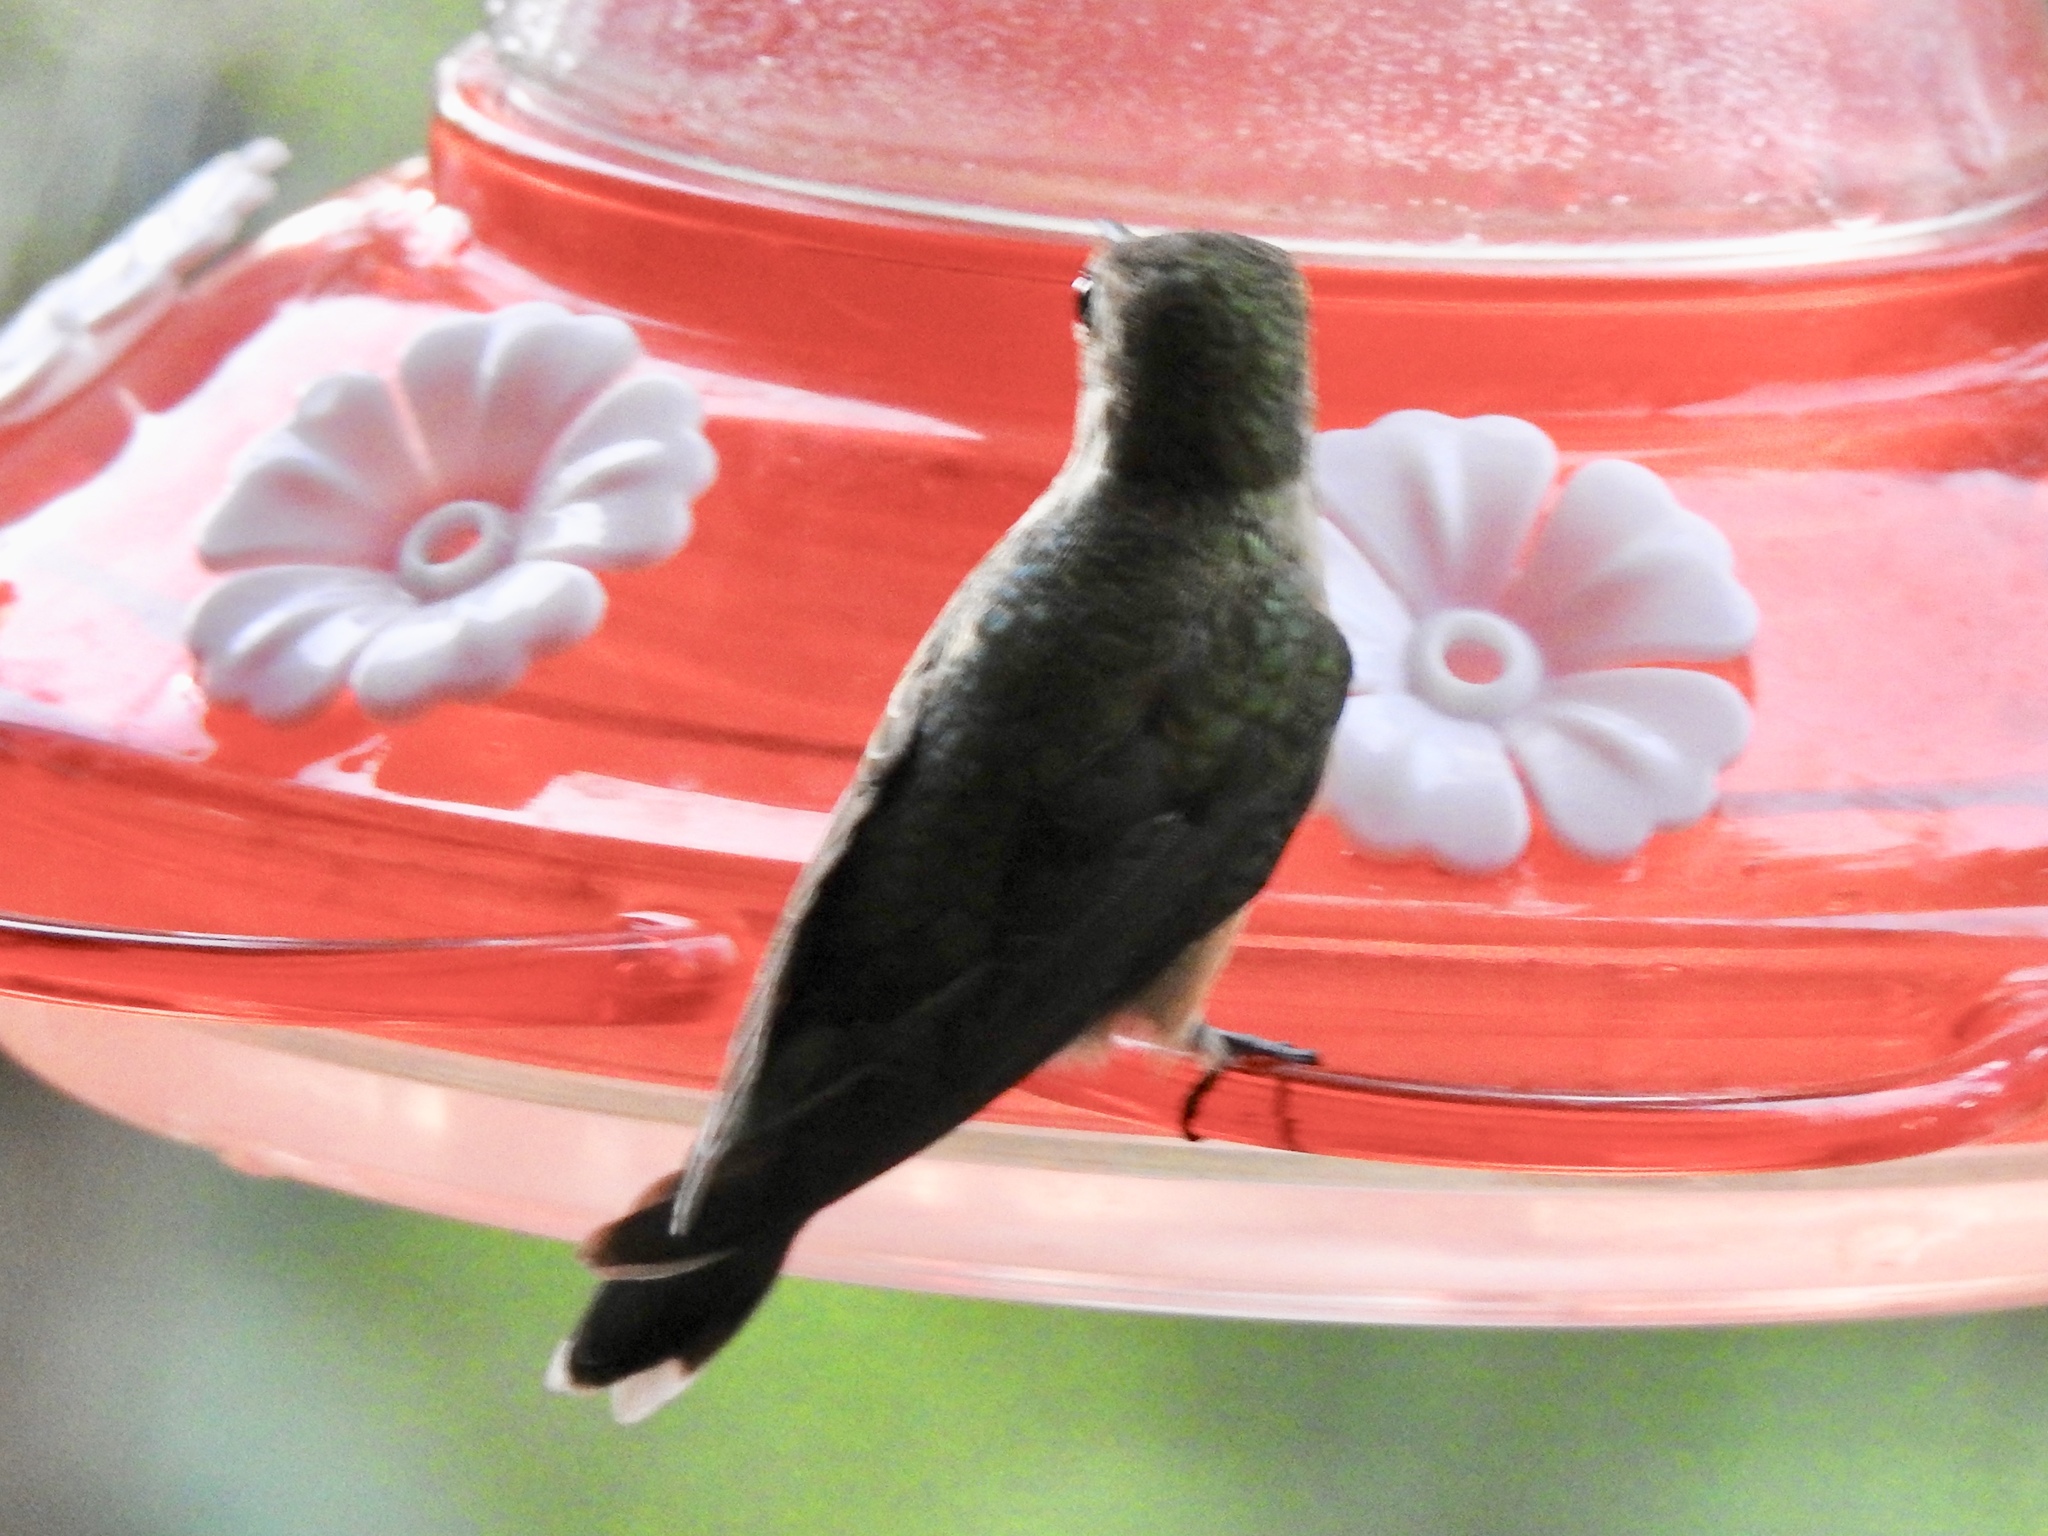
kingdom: Animalia
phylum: Chordata
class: Aves
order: Apodiformes
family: Trochilidae
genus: Archilochus
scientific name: Archilochus alexandri
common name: Black-chinned hummingbird
